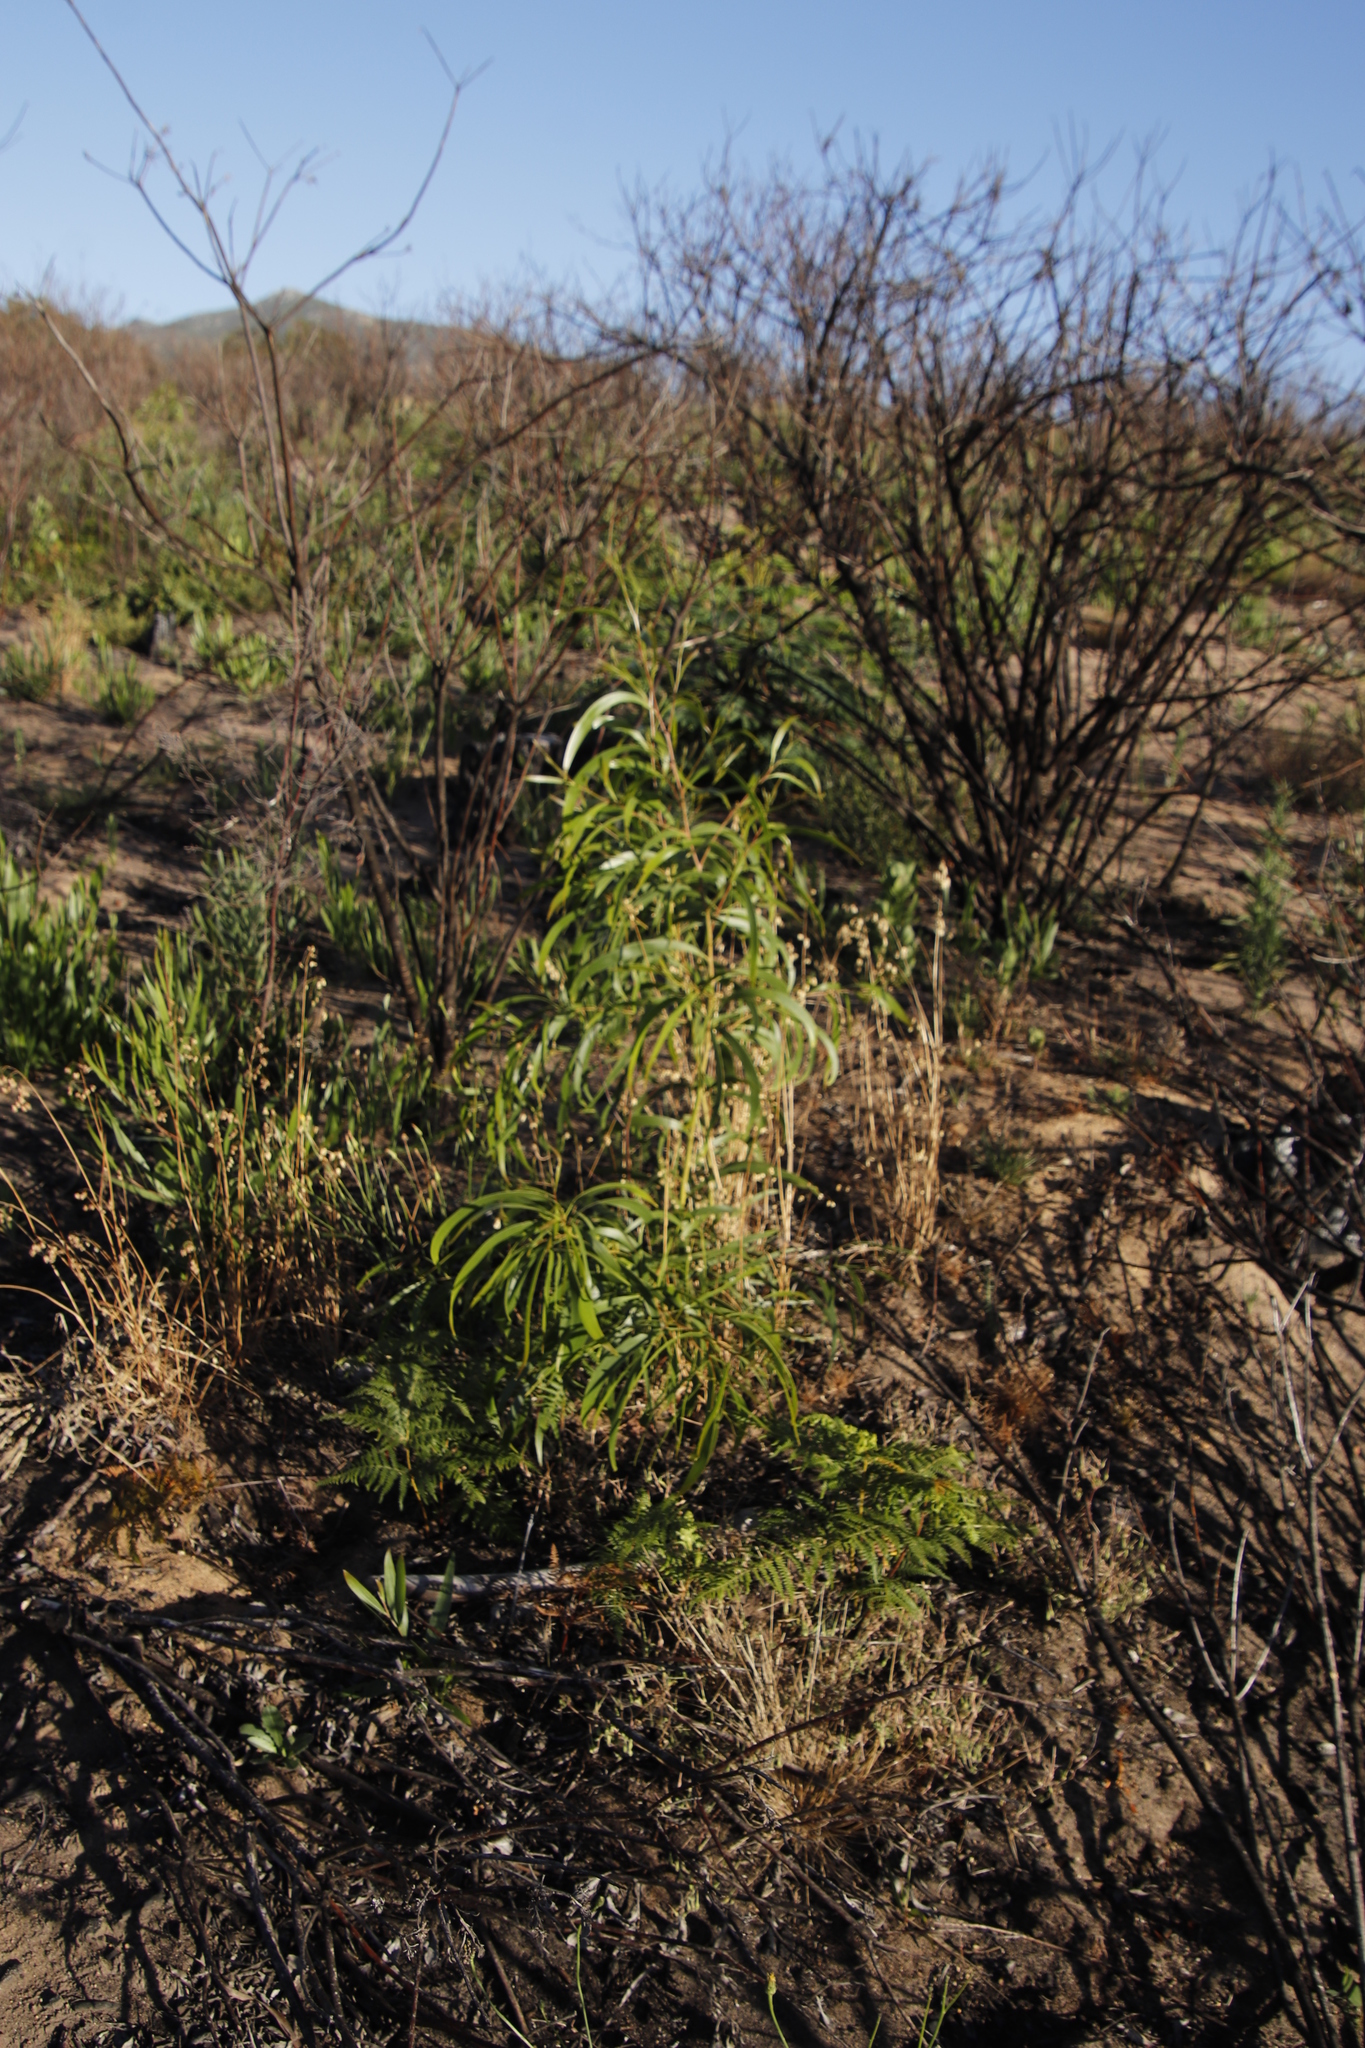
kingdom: Plantae
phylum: Tracheophyta
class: Magnoliopsida
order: Fabales
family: Fabaceae
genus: Acacia
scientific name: Acacia implexa
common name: Black wattle
